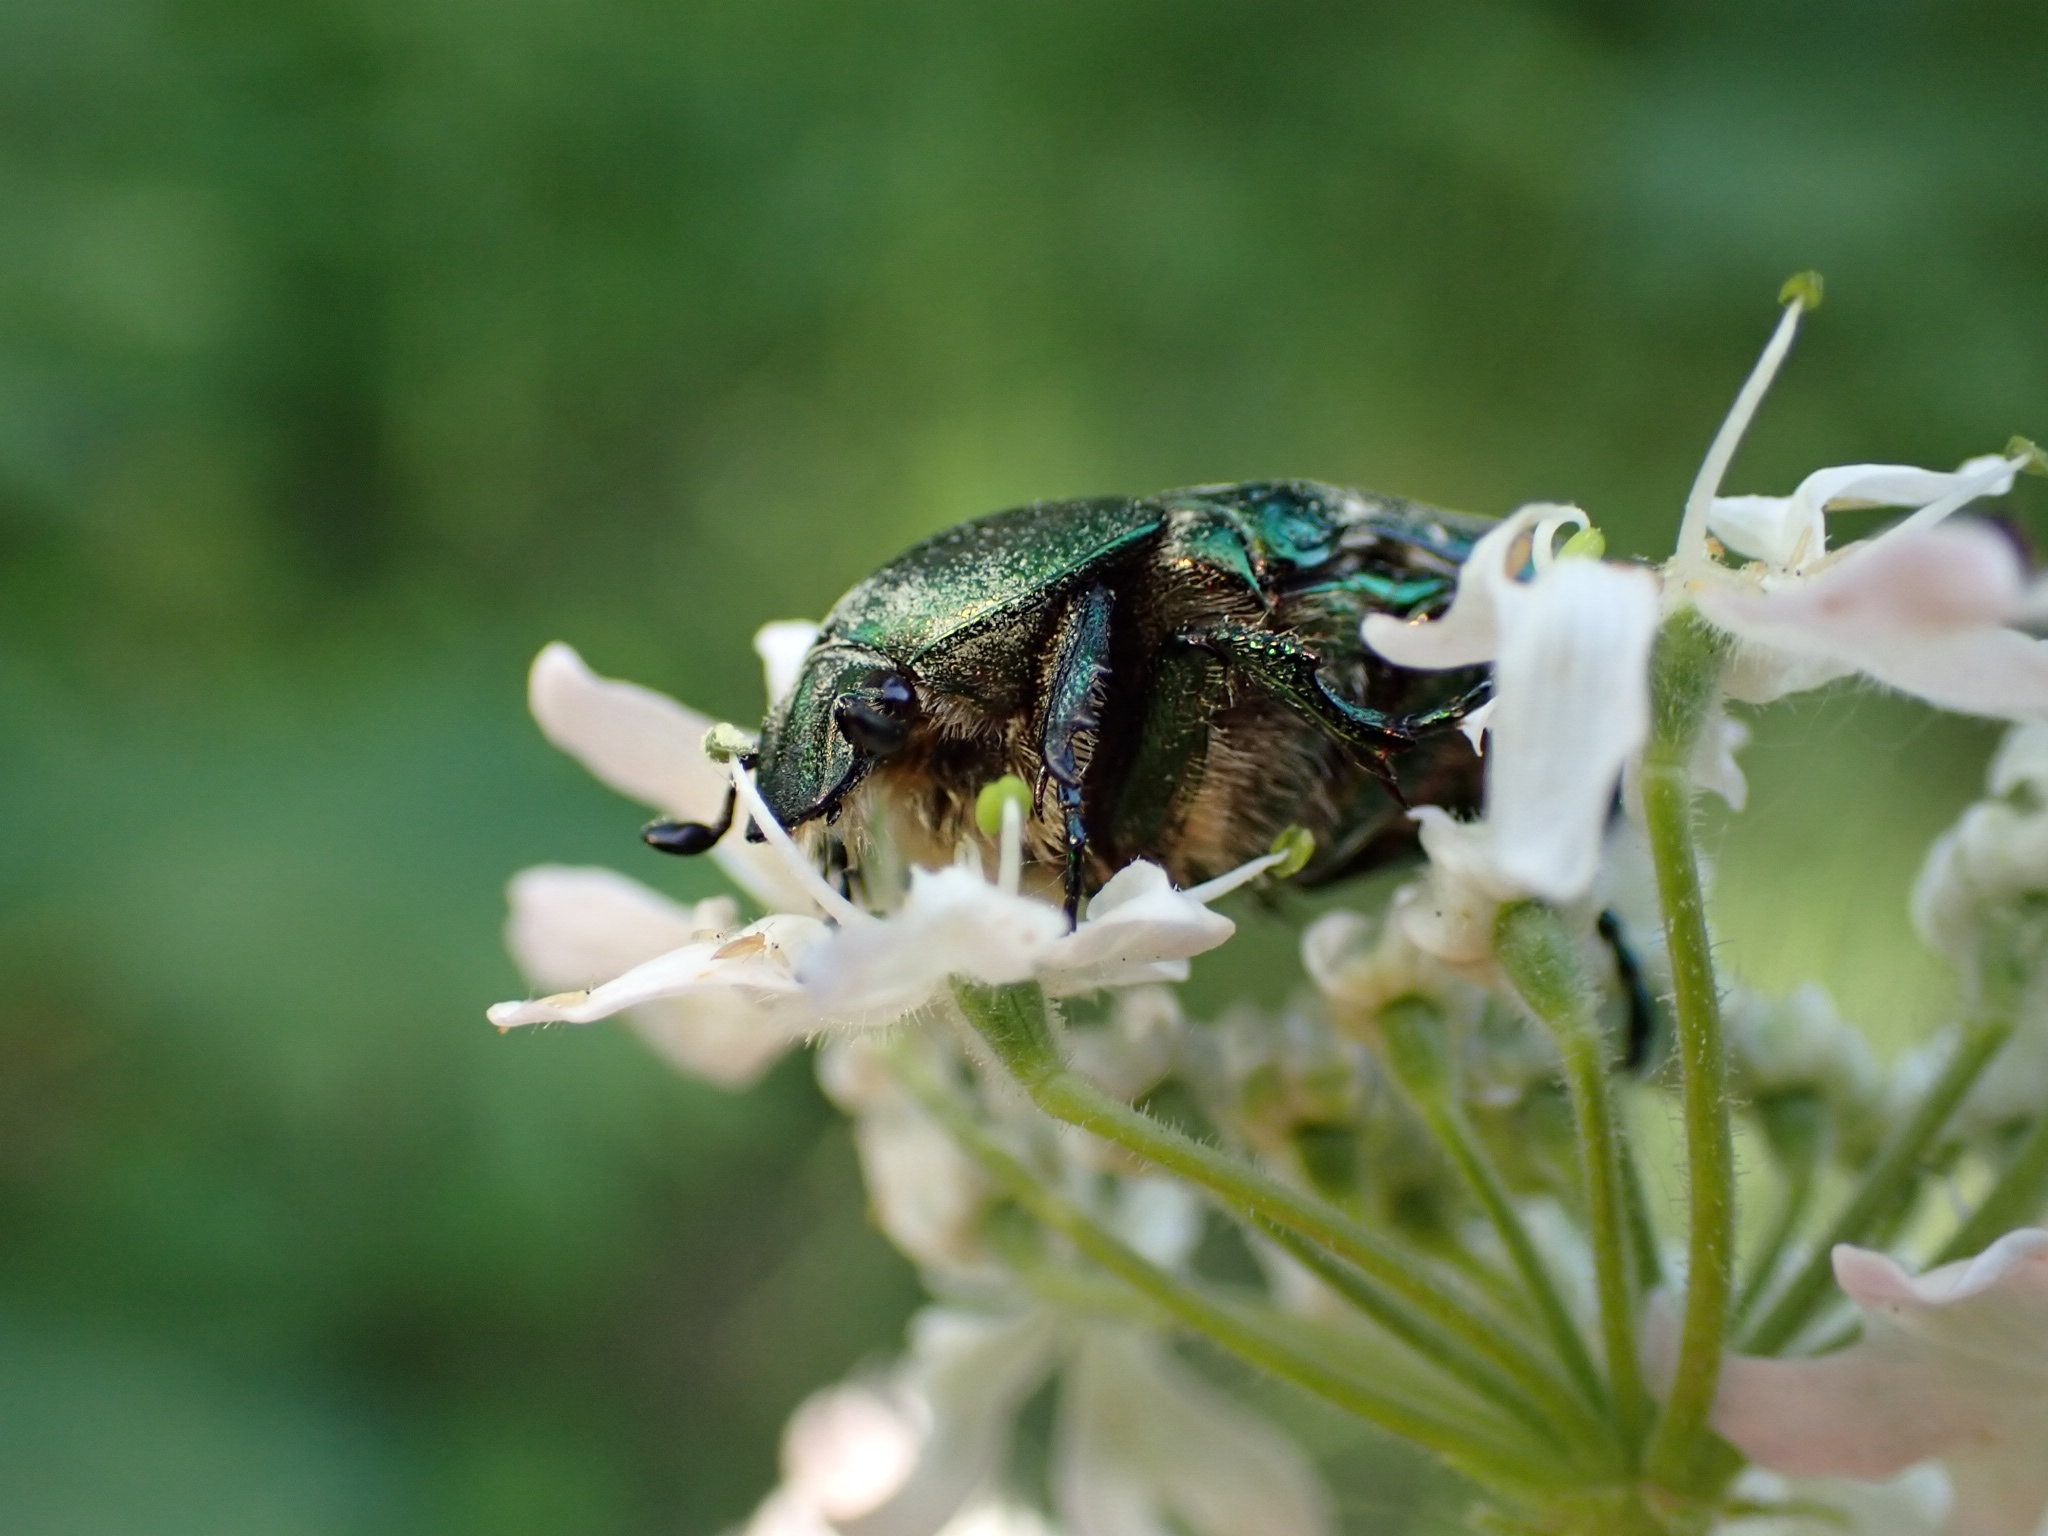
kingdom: Animalia
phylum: Arthropoda
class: Insecta
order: Coleoptera
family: Scarabaeidae
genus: Protaetia
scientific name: Protaetia cuprea
